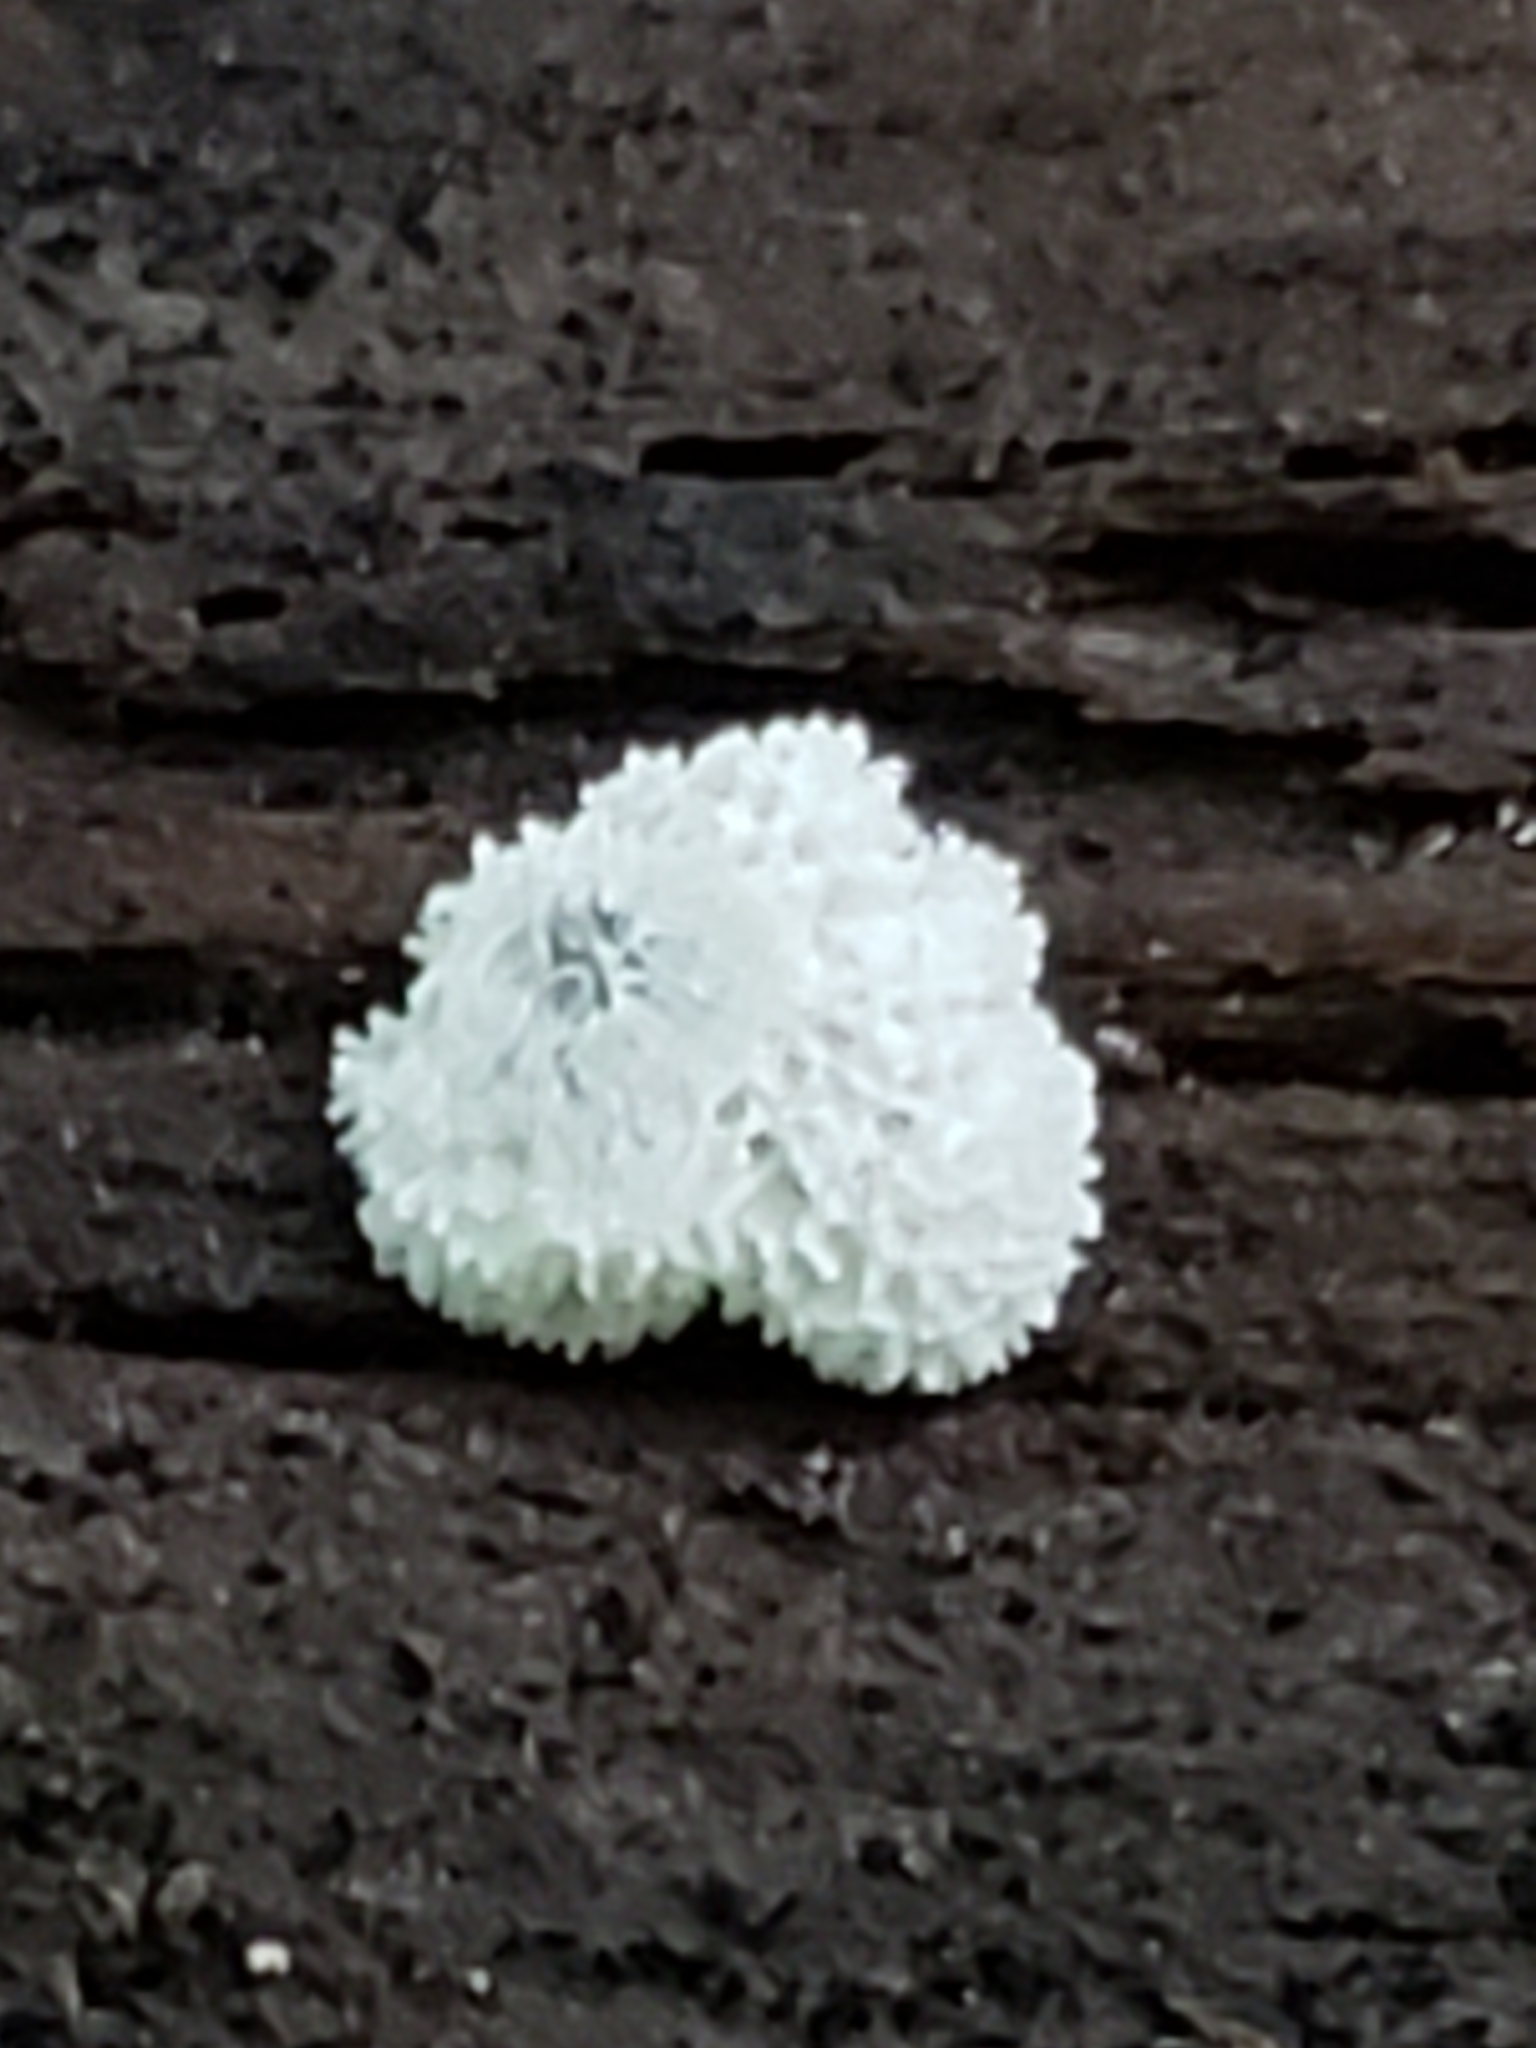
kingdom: Protozoa
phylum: Mycetozoa
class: Protosteliomycetes
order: Ceratiomyxales
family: Ceratiomyxaceae
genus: Ceratiomyxa
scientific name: Ceratiomyxa fruticulosa
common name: Honeycomb coral slime mold
